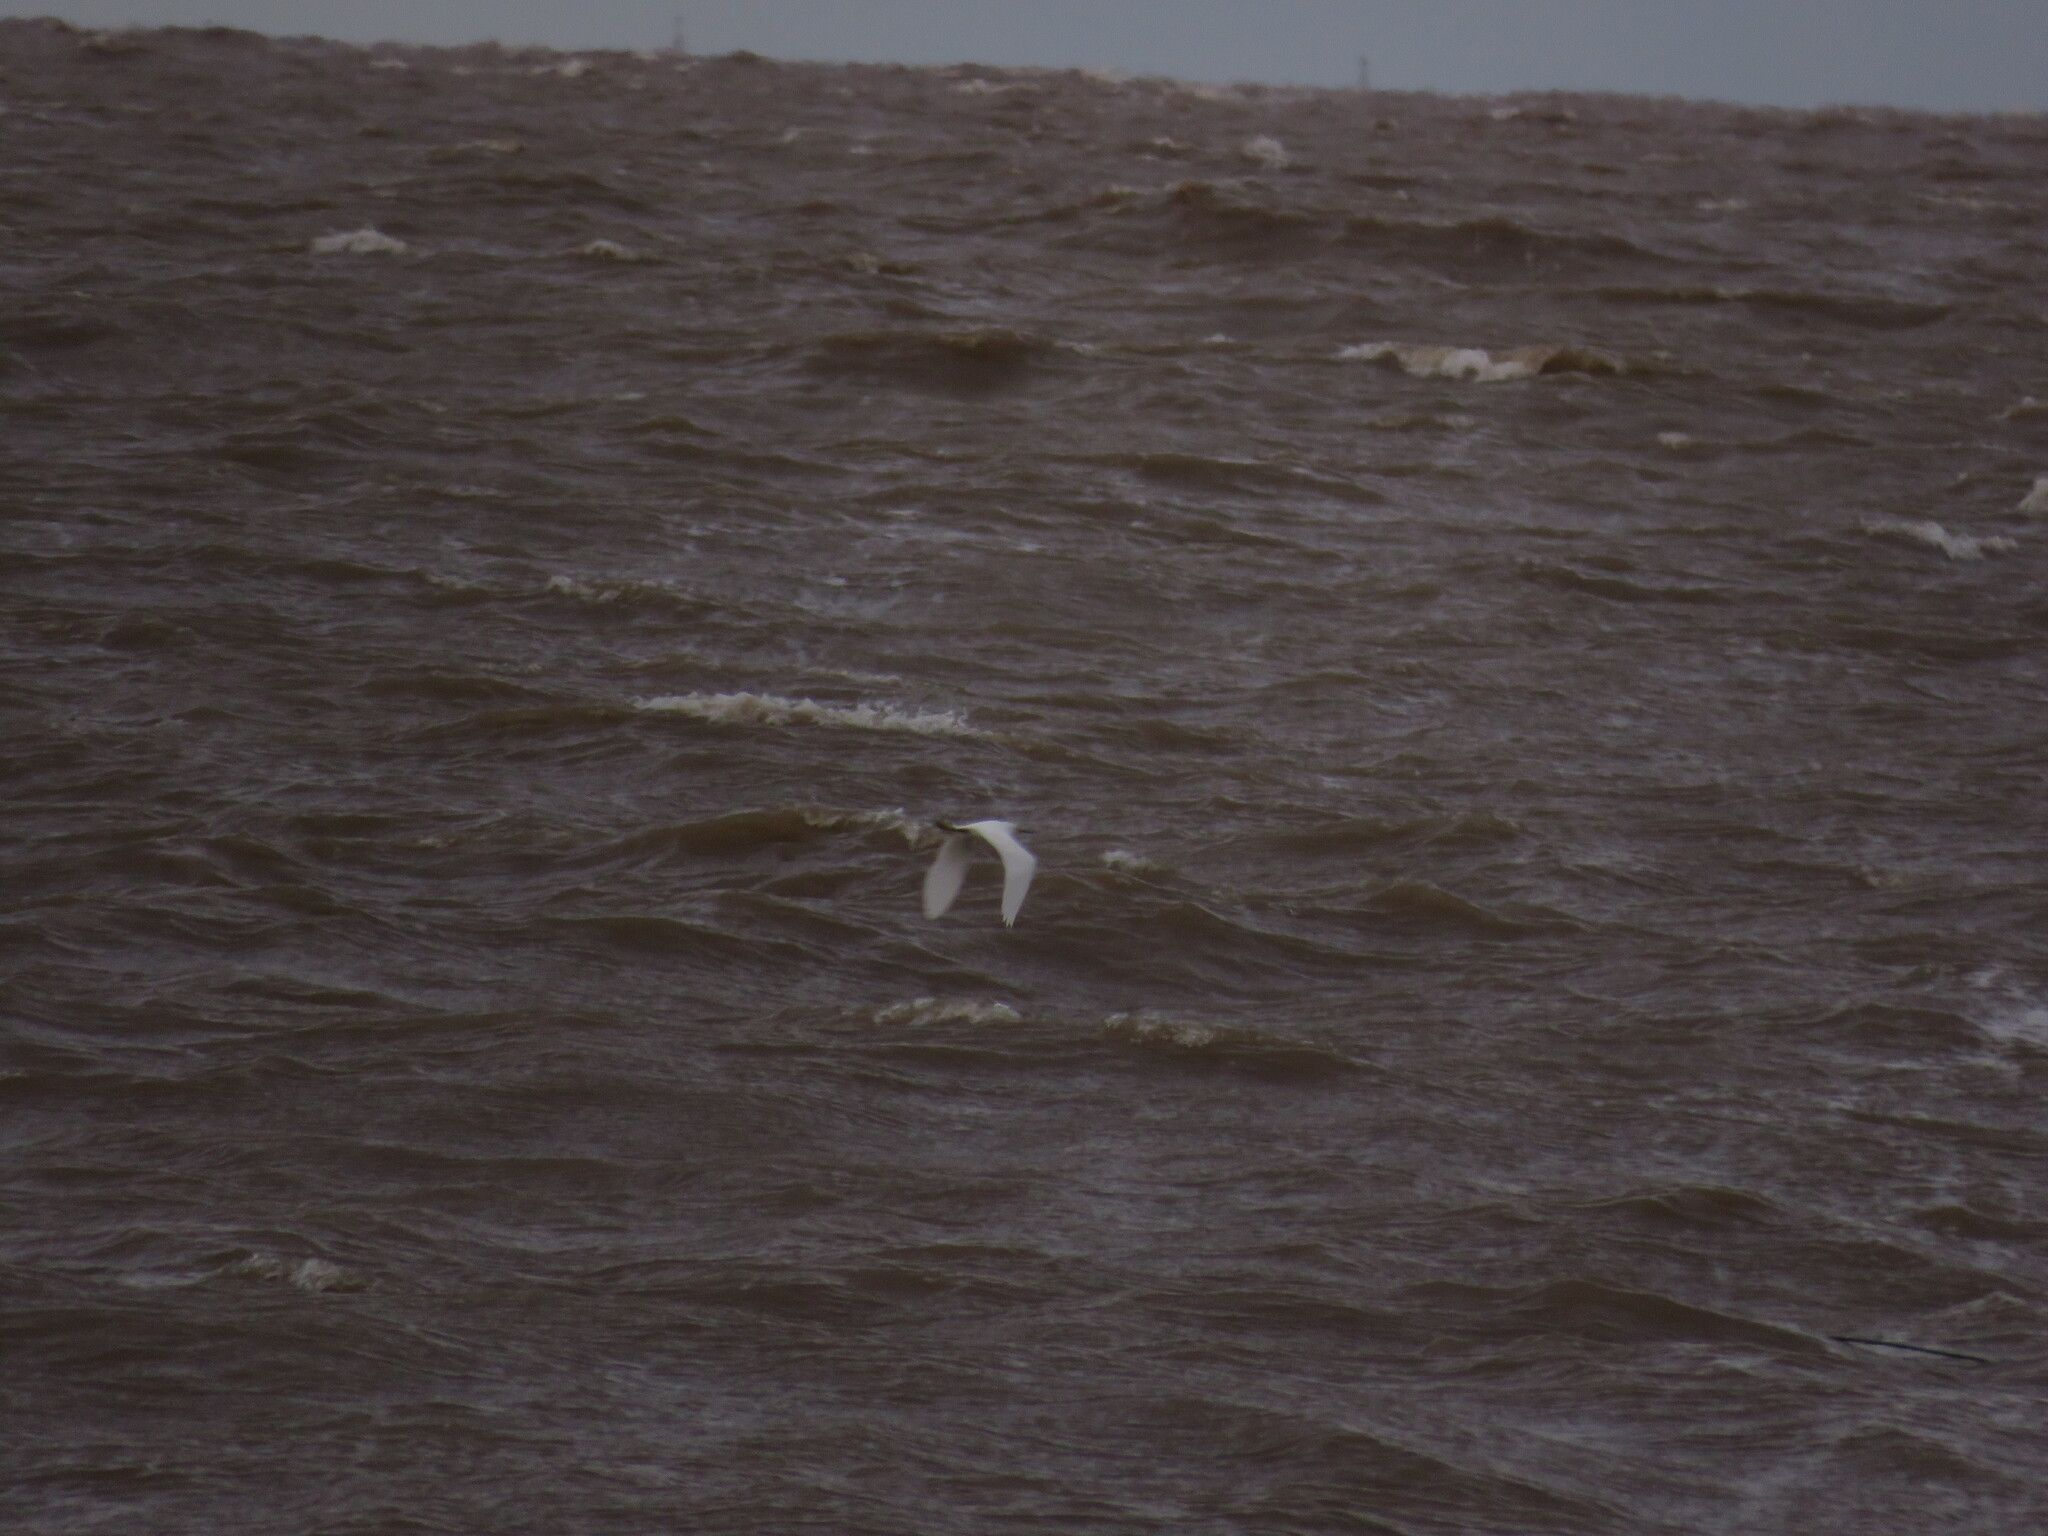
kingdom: Animalia
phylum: Chordata
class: Aves
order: Pelecaniformes
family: Ardeidae
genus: Egretta
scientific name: Egretta thula
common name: Snowy egret
